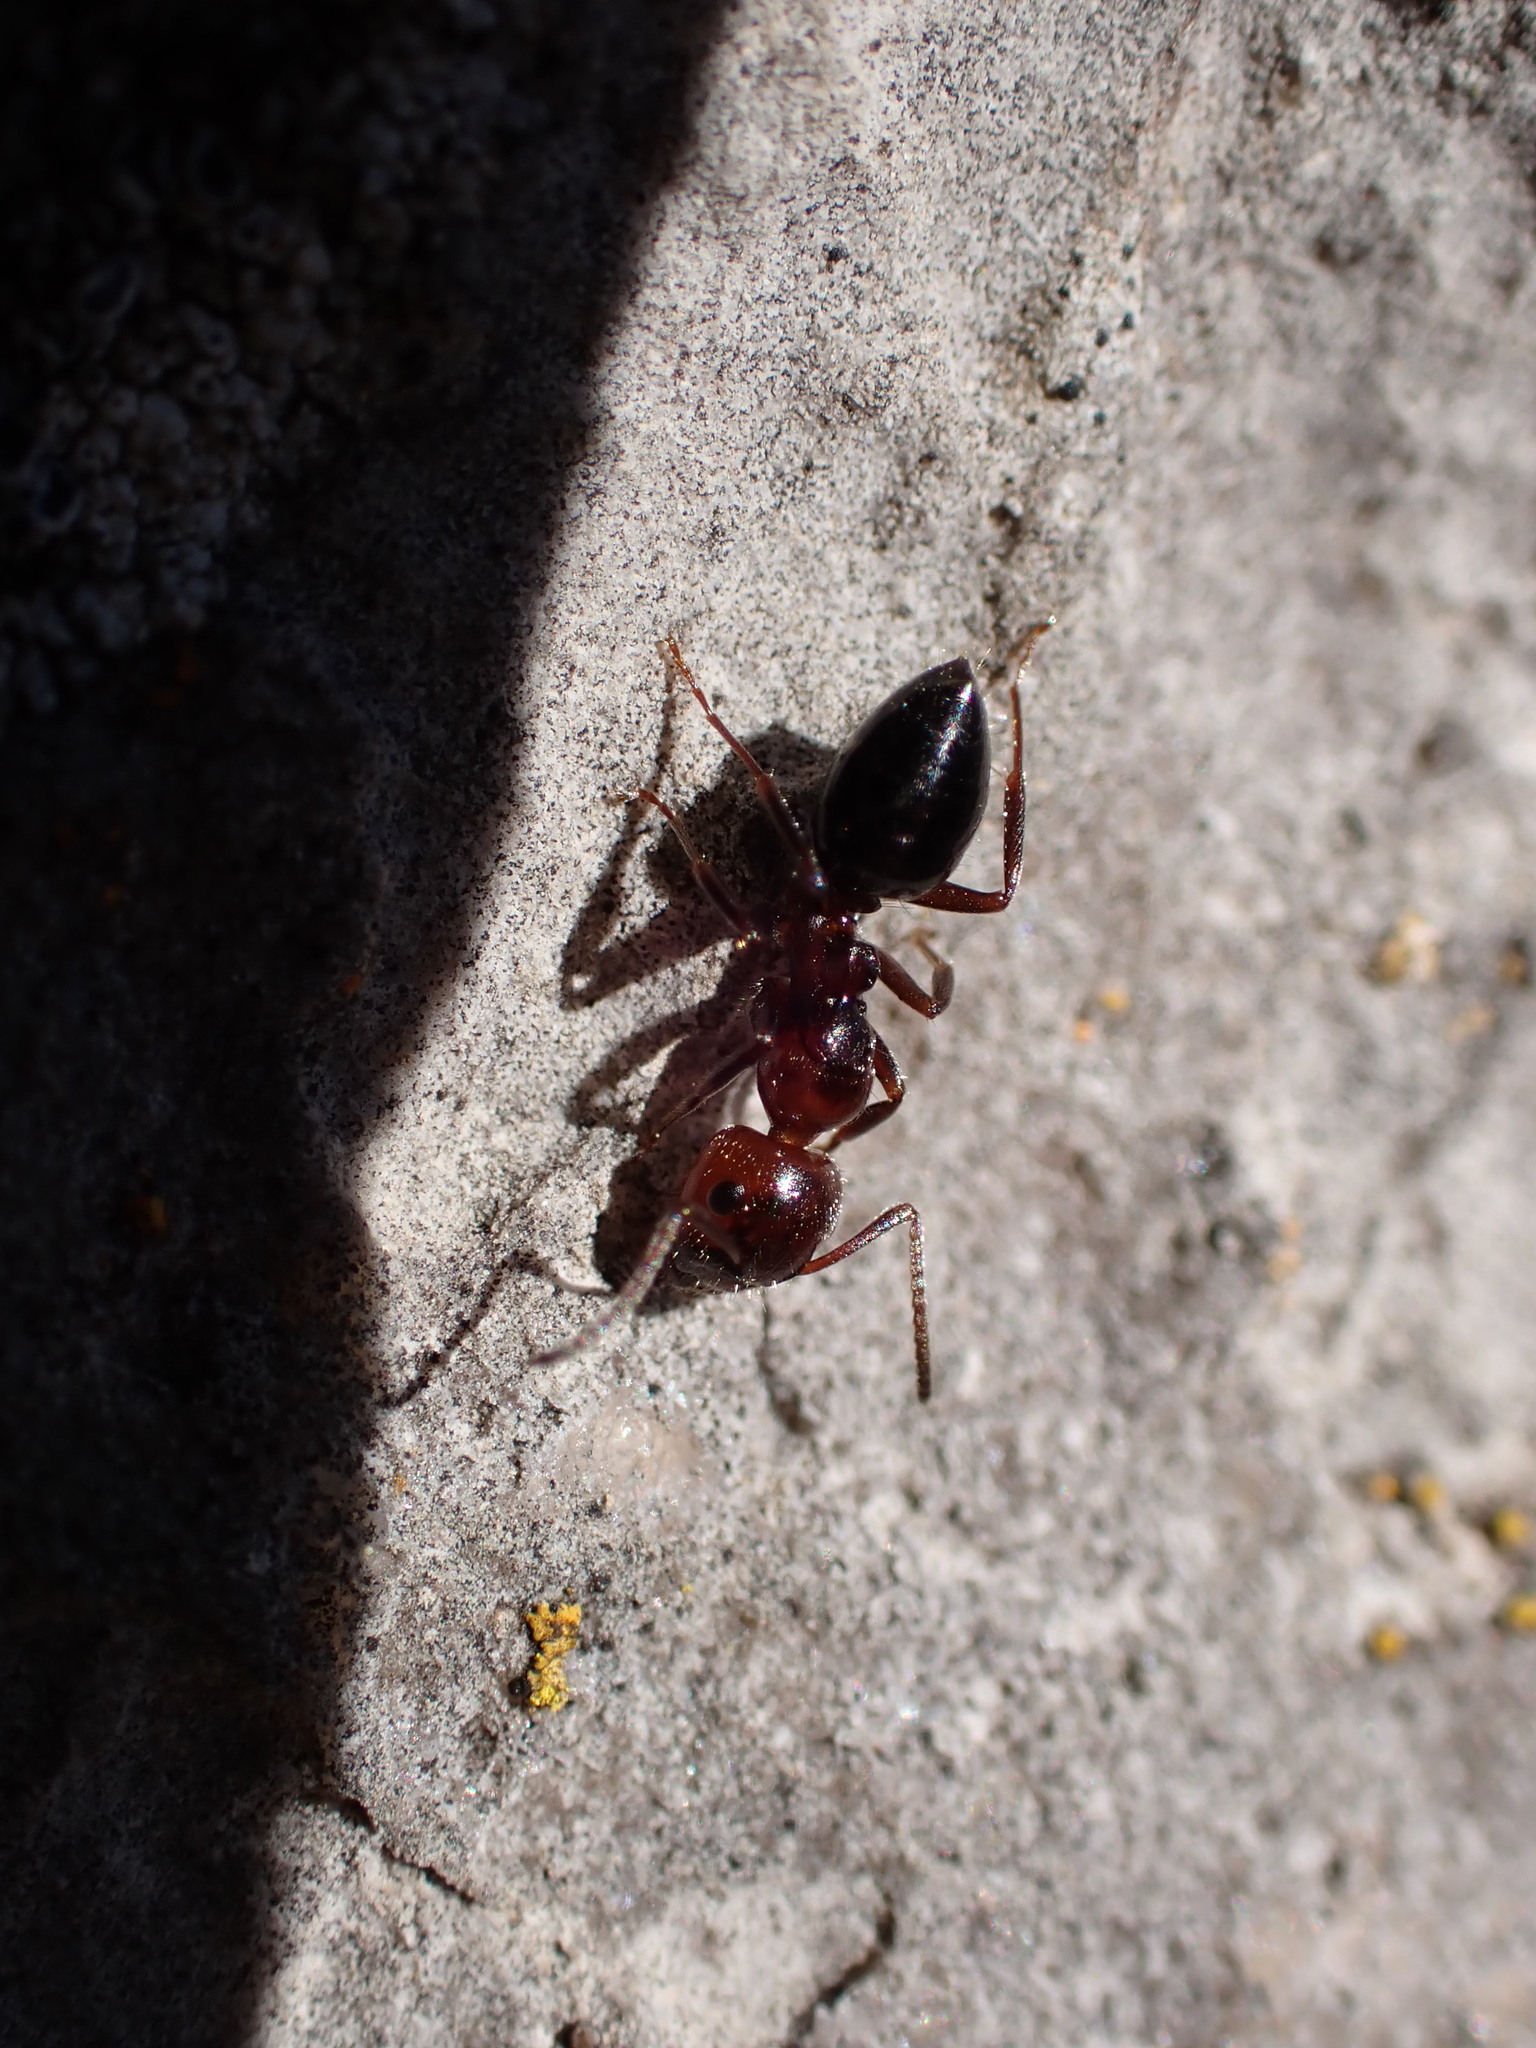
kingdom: Animalia
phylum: Arthropoda
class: Insecta
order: Hymenoptera
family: Formicidae
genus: Camponotus
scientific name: Camponotus lateralis
